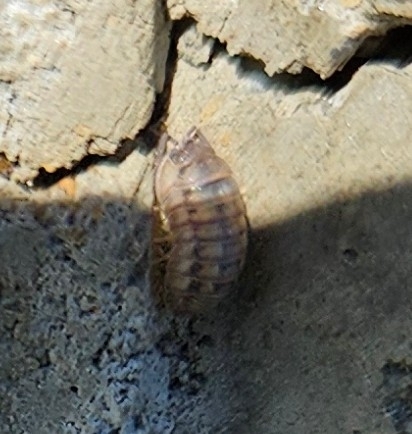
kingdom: Animalia
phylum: Arthropoda
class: Malacostraca
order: Isopoda
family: Armadillidiidae
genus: Armadillidium
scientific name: Armadillidium nasatum
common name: Isopod
